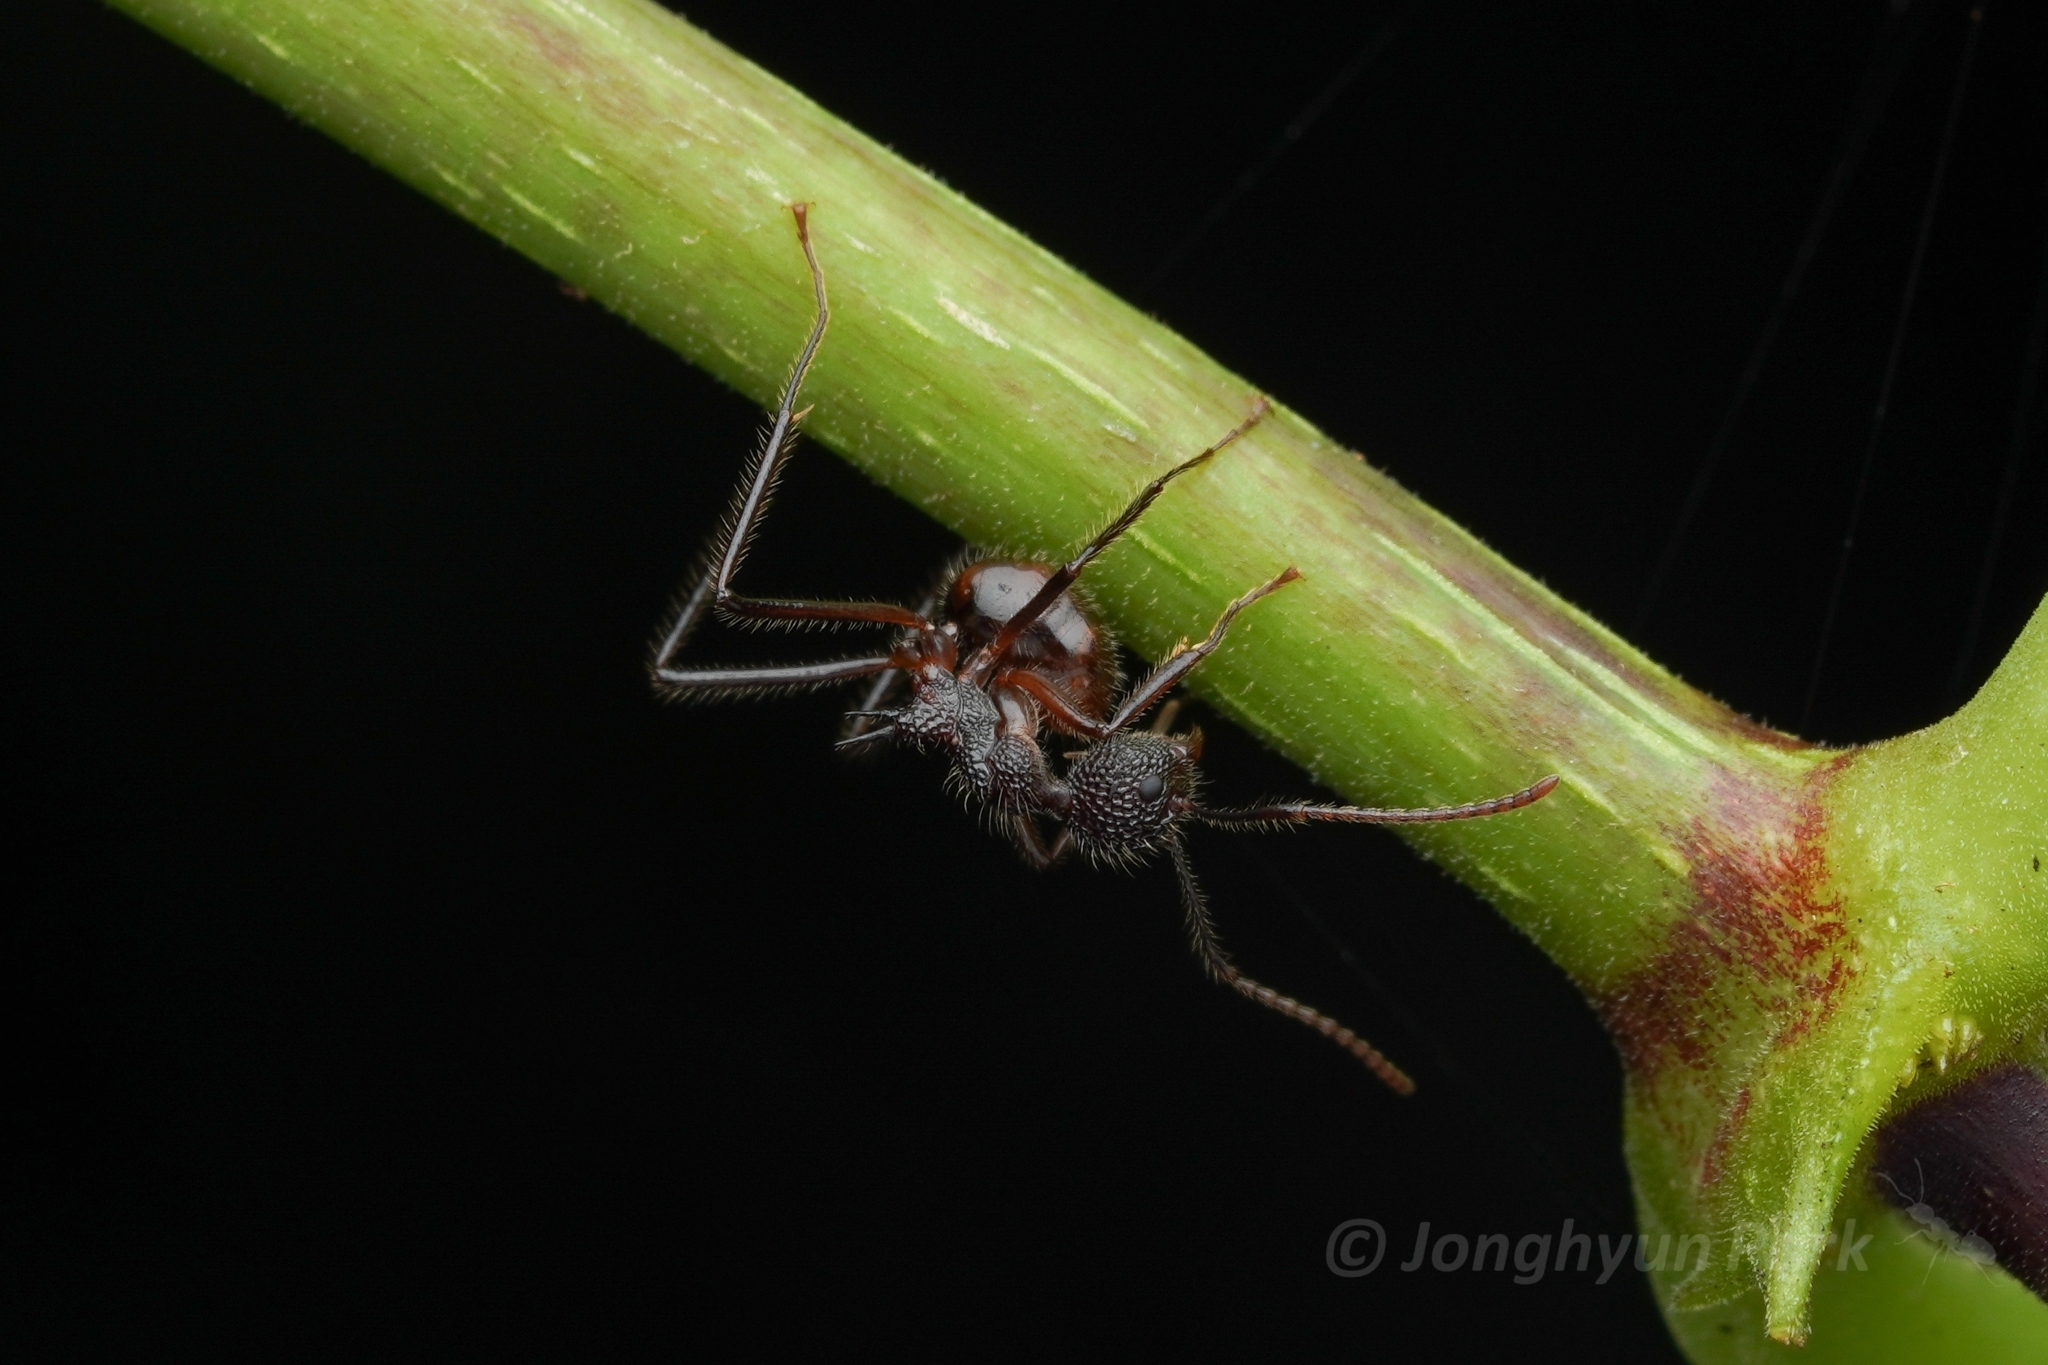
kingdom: Animalia
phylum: Arthropoda
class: Insecta
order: Hymenoptera
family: Formicidae
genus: Dolichoderus
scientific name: Dolichoderus indrapurensis
